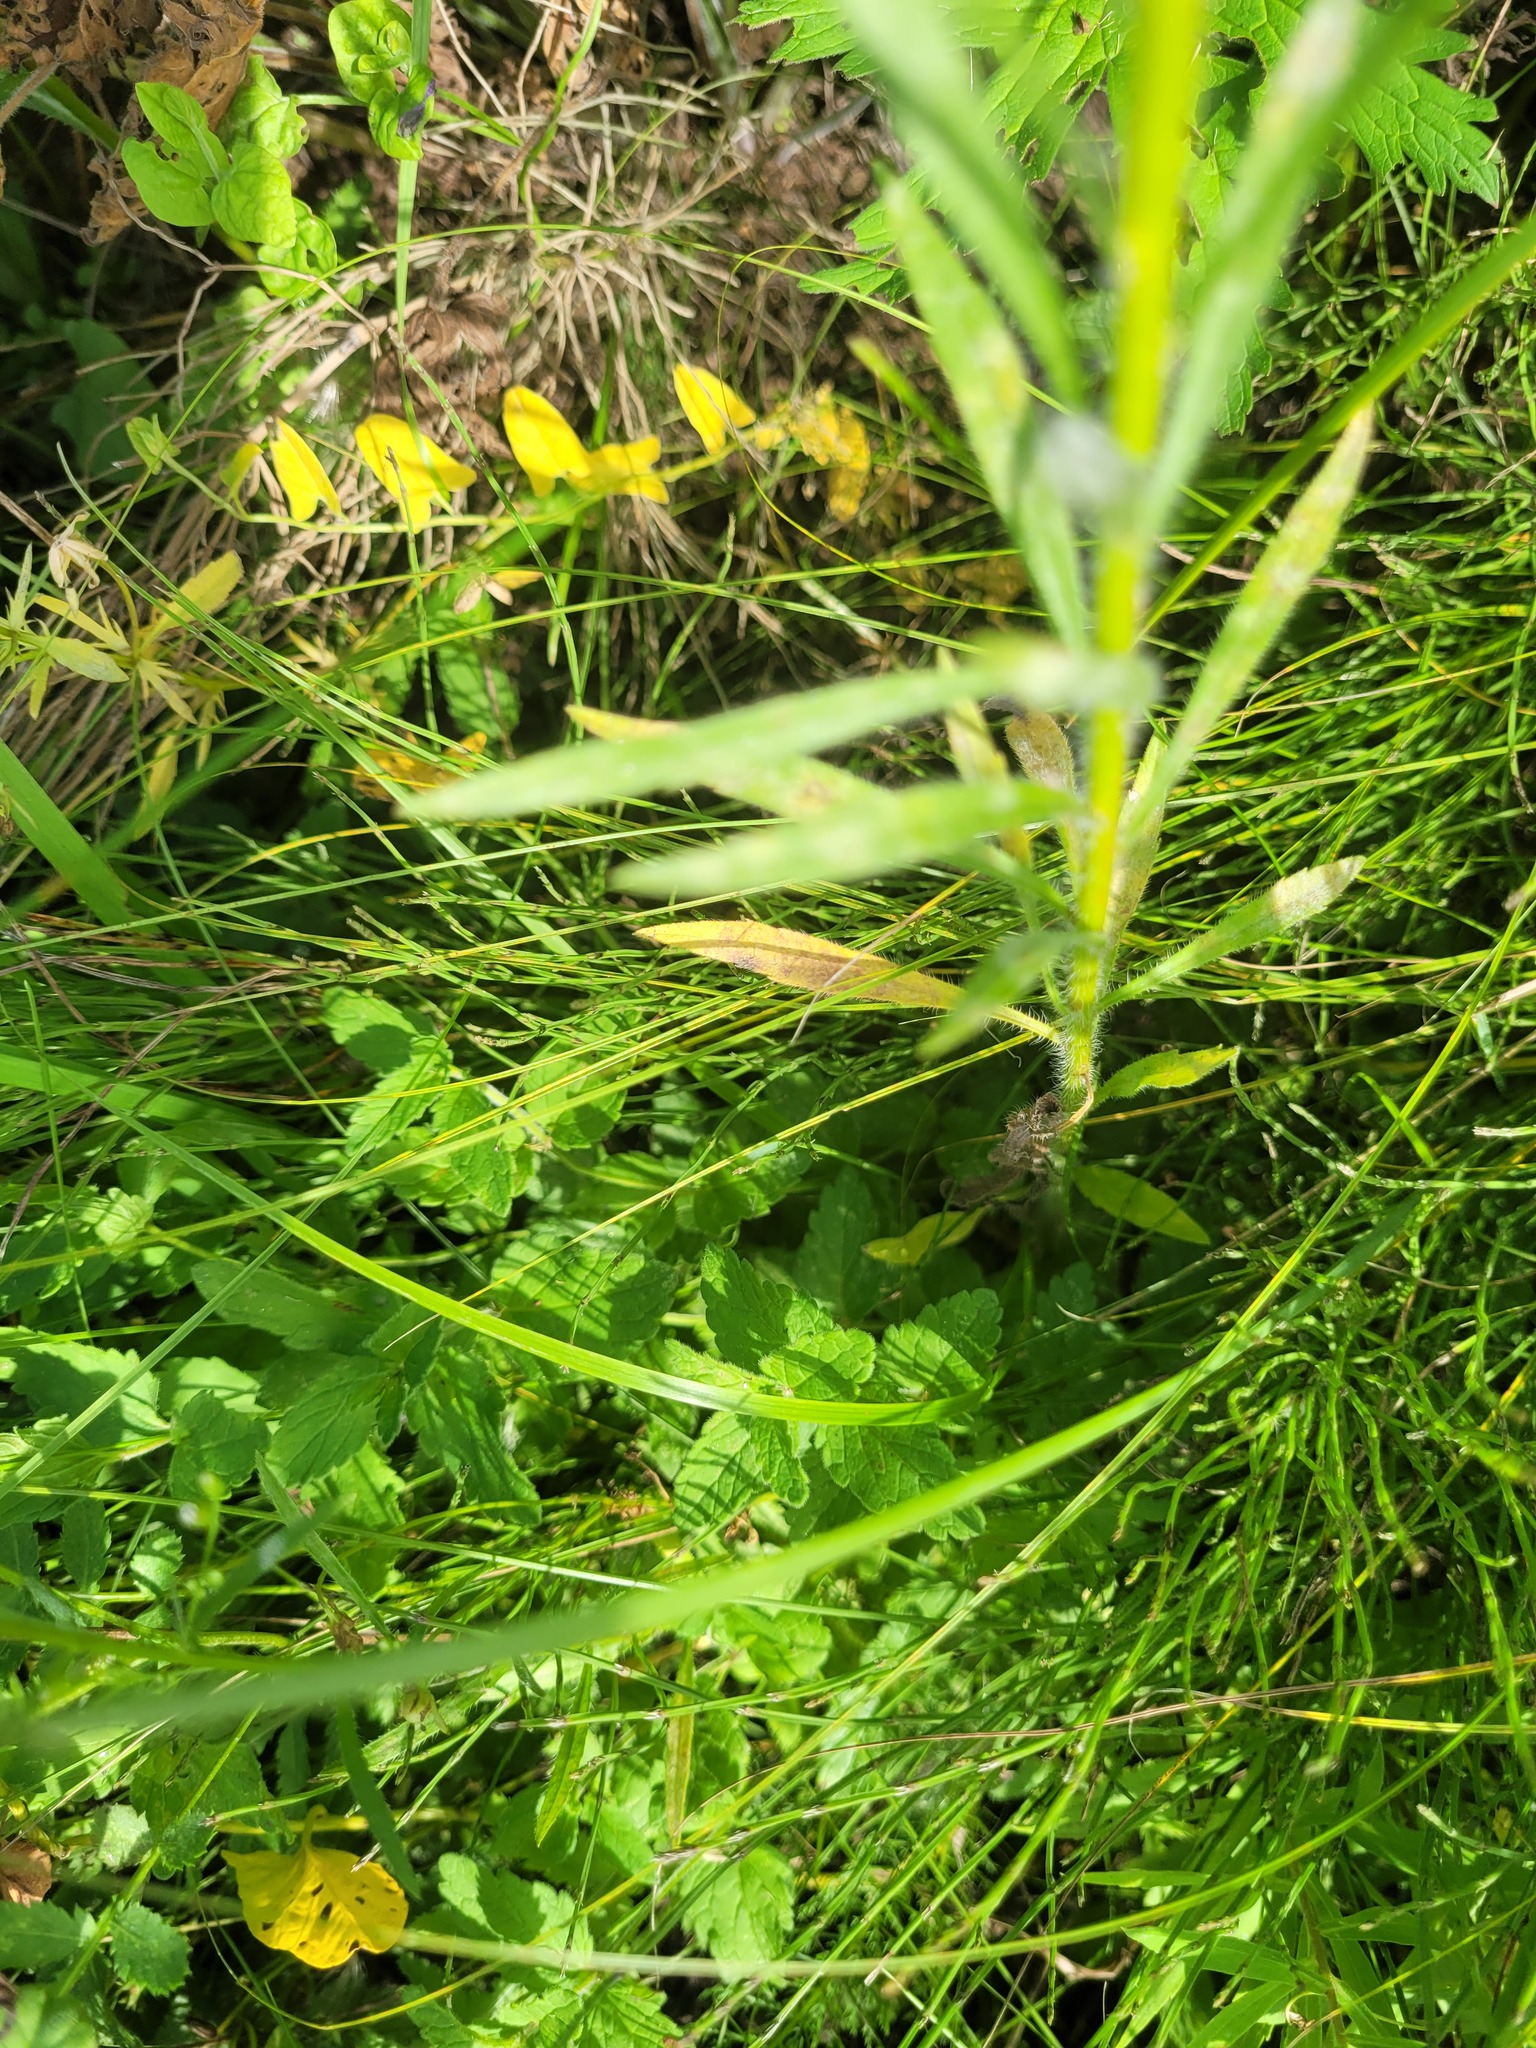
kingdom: Plantae
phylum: Tracheophyta
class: Magnoliopsida
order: Lamiales
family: Plantaginaceae
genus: Veronica
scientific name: Veronica chamaedrys
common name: Germander speedwell
